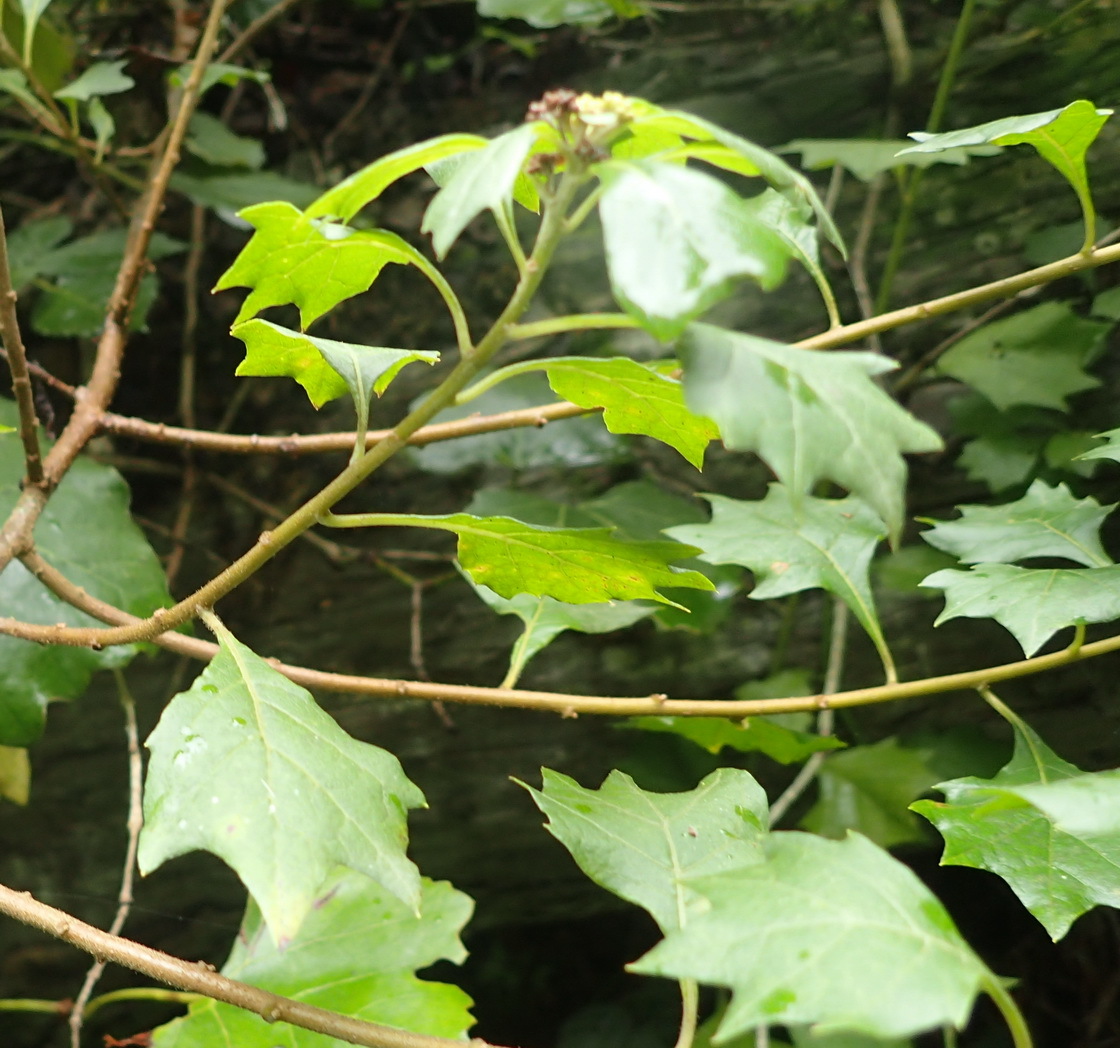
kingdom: Plantae
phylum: Tracheophyta
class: Magnoliopsida
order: Asterales
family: Asteraceae
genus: Gymnanthemum
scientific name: Gymnanthemum capense
